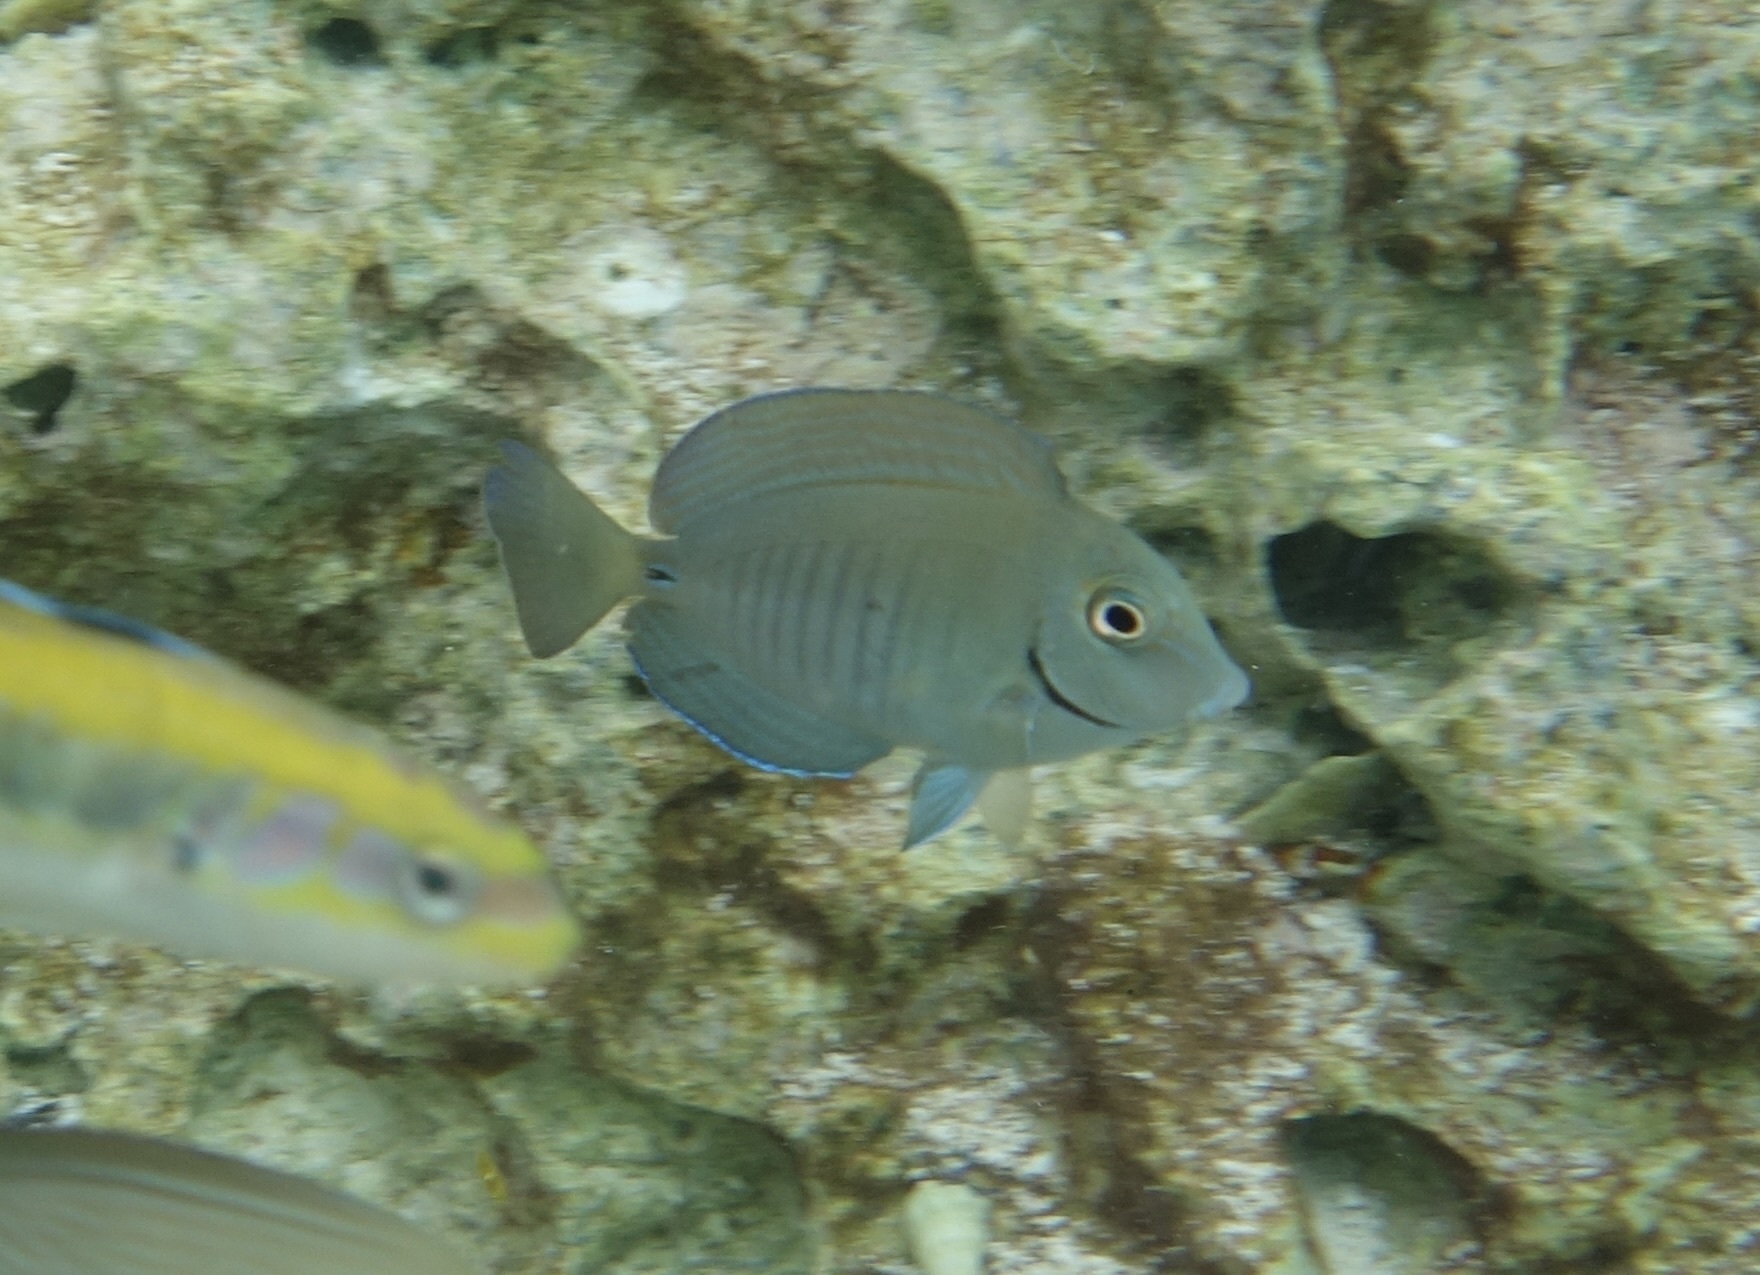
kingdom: Animalia
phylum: Chordata
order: Perciformes
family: Acanthuridae
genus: Acanthurus
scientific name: Acanthurus chirurgus
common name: Doctorfish
